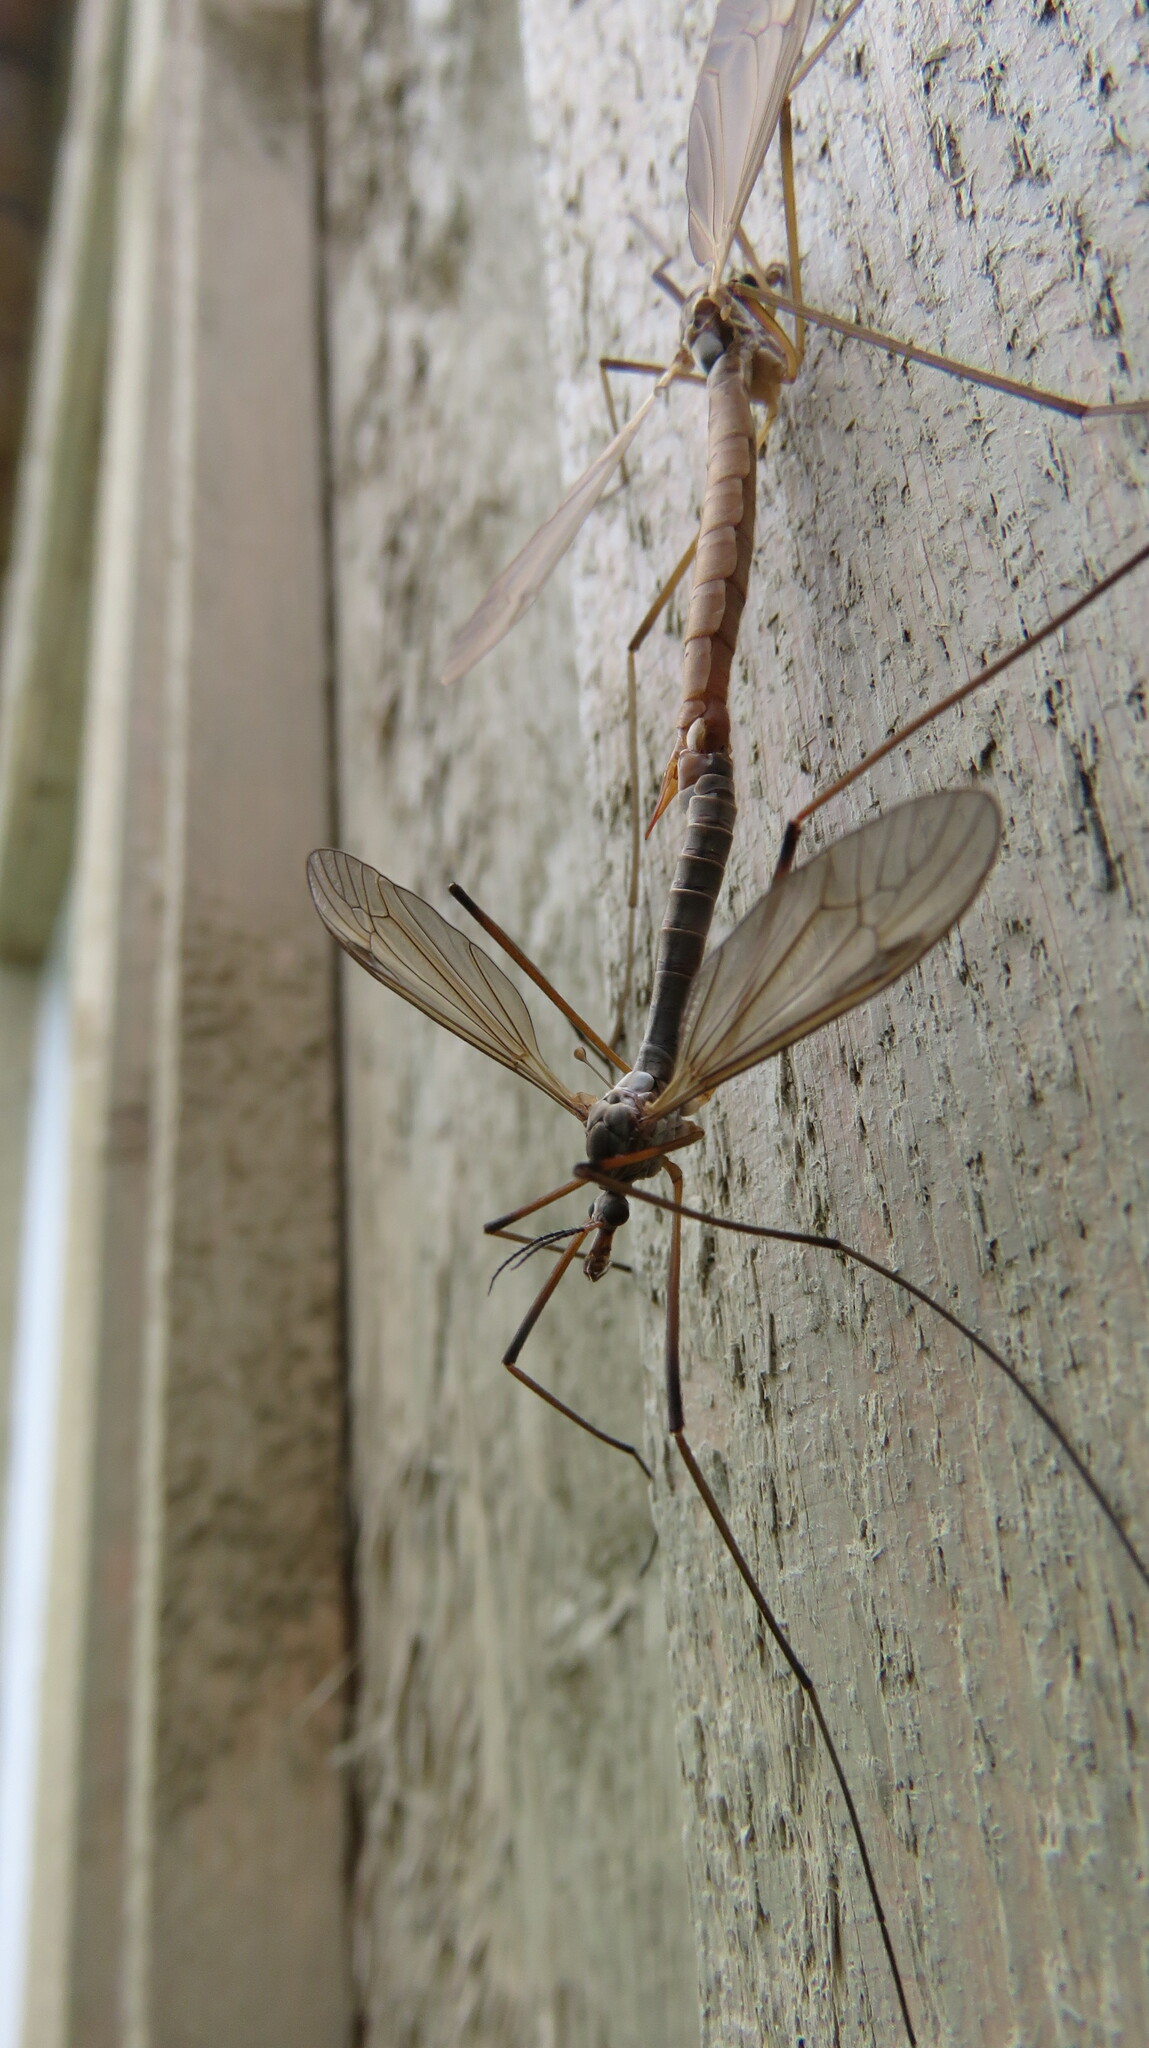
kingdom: Animalia
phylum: Arthropoda
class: Insecta
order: Diptera
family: Tipulidae
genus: Tipula
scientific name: Tipula paludosa
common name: European cranefly
